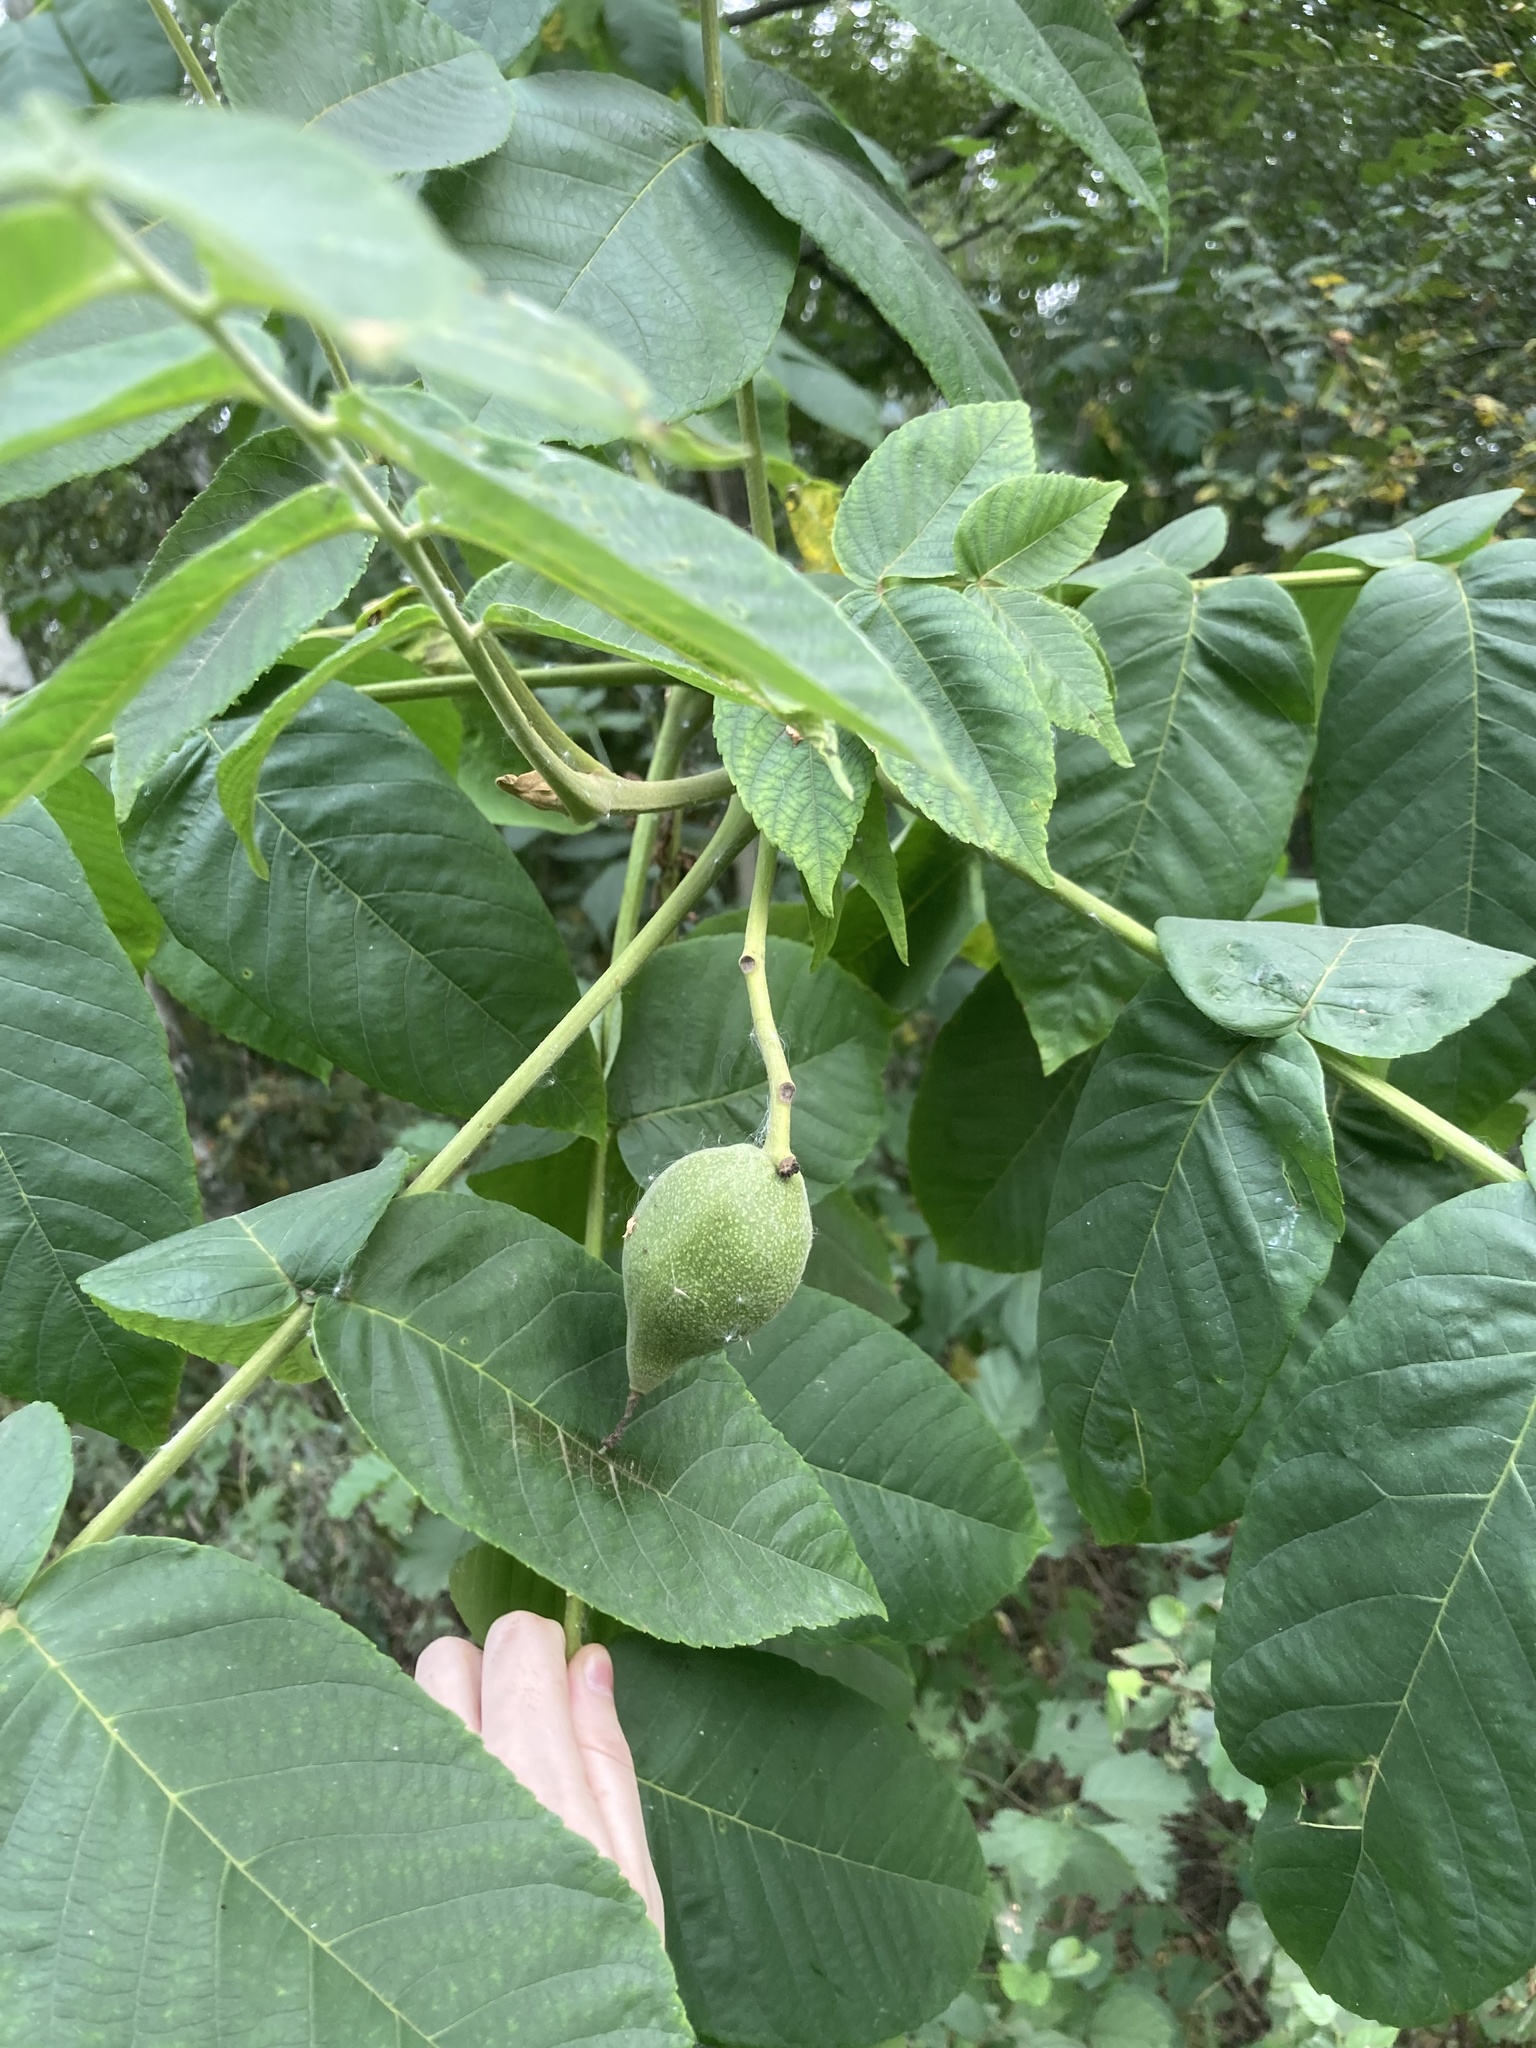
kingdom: Plantae
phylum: Tracheophyta
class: Magnoliopsida
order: Fagales
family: Juglandaceae
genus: Juglans
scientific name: Juglans mandshurica
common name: Manchurian walnut
